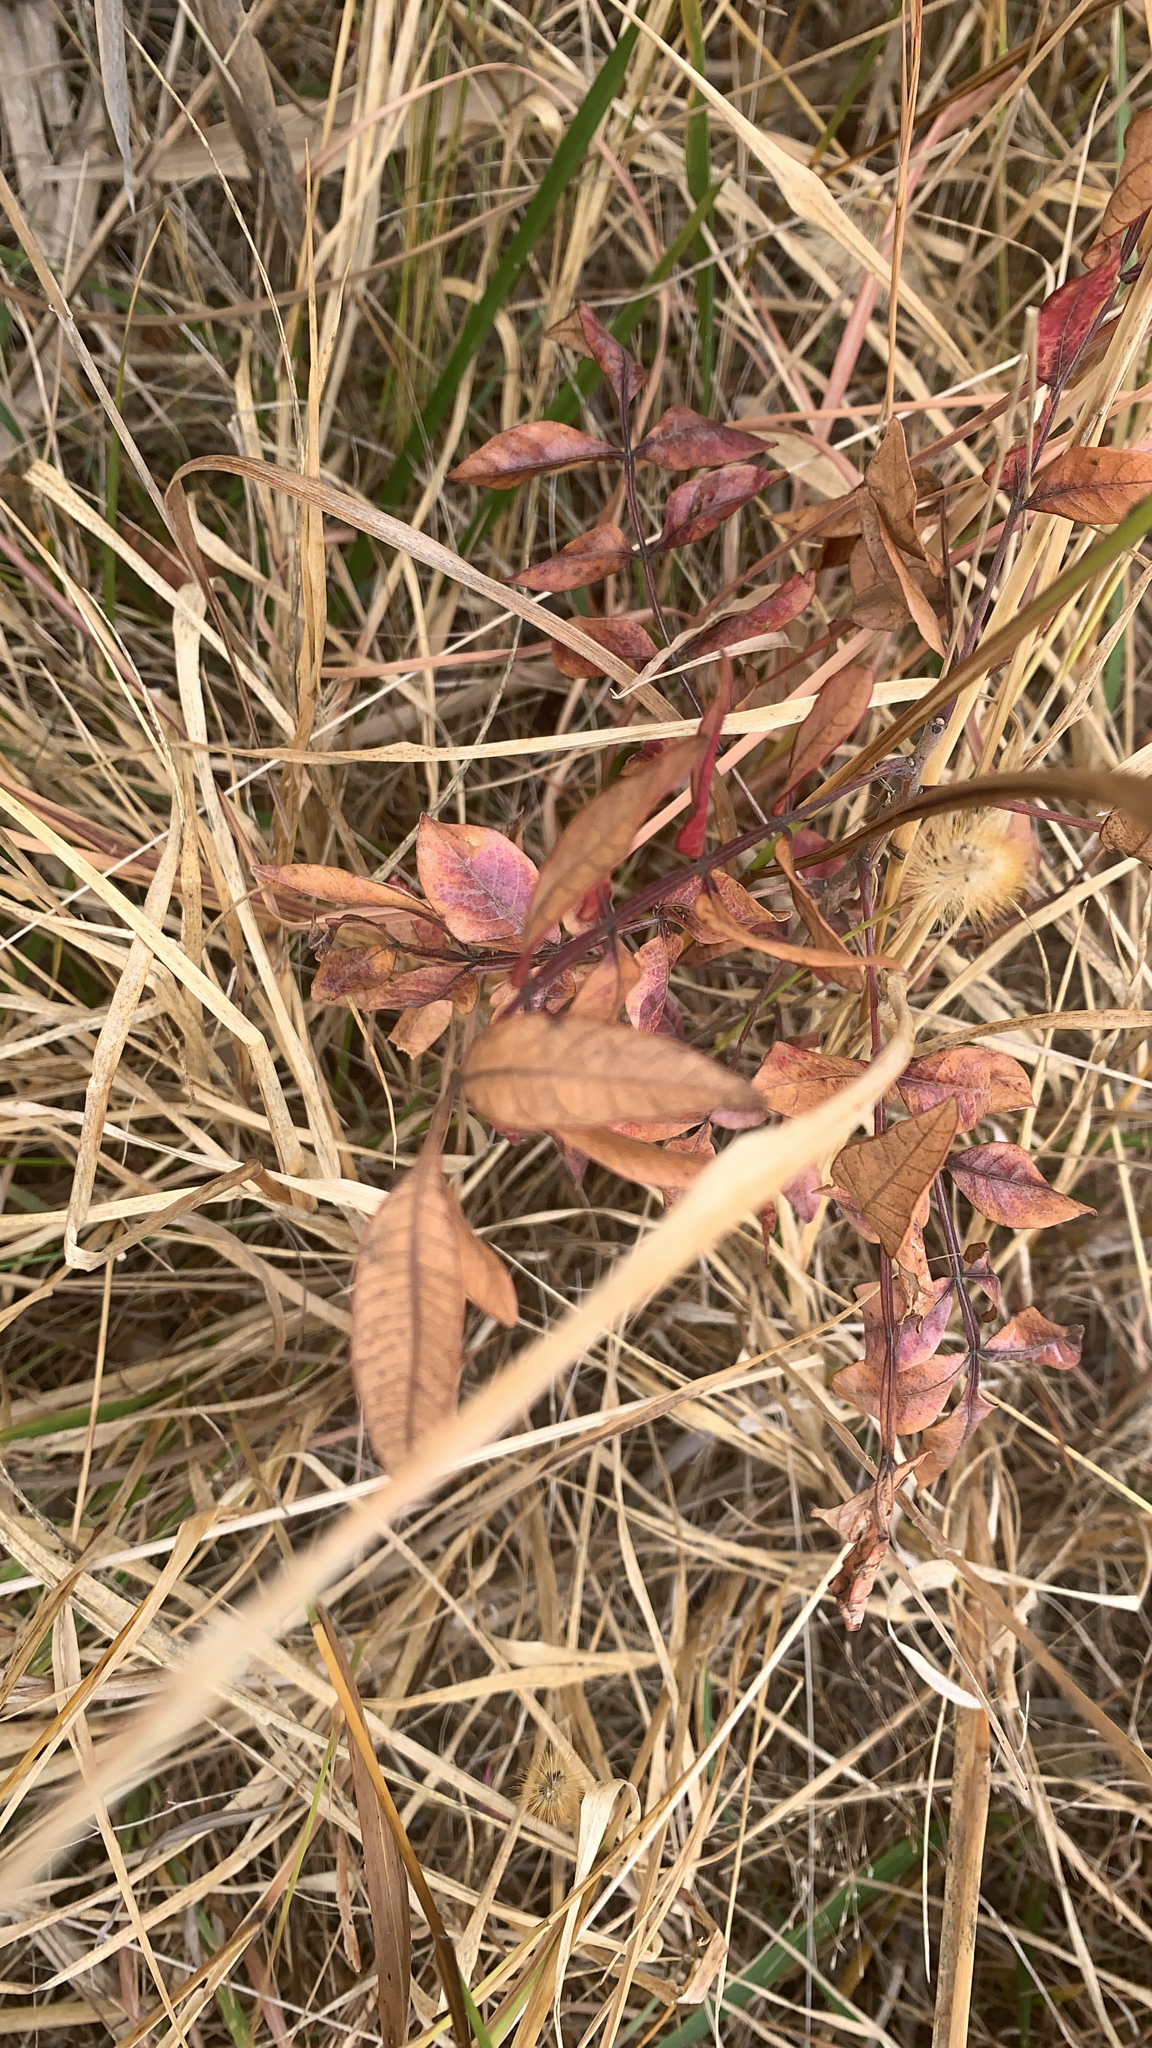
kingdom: Plantae
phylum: Tracheophyta
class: Magnoliopsida
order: Sapindales
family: Anacardiaceae
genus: Rhus
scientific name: Rhus copallina
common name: Shining sumac
